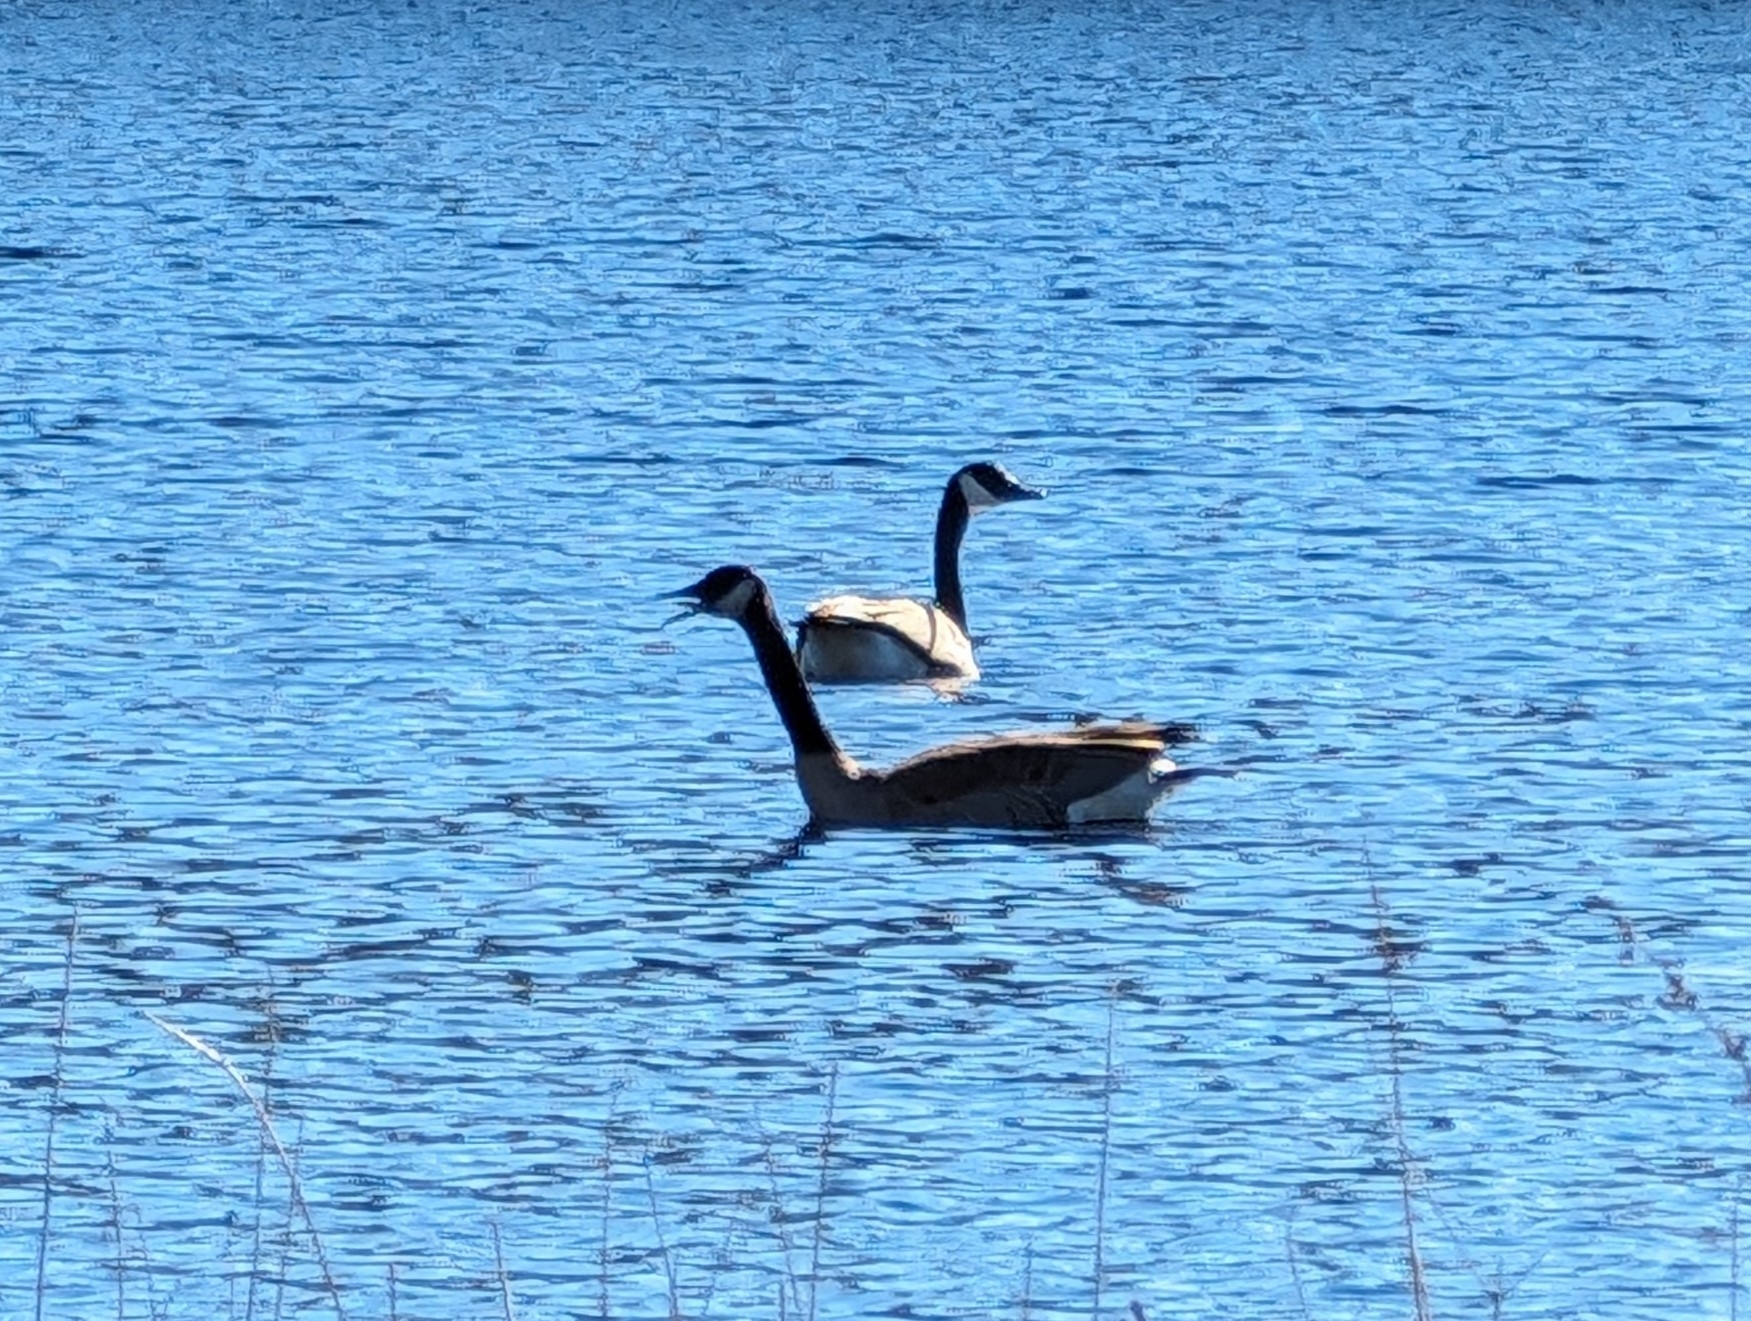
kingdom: Animalia
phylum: Chordata
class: Aves
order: Anseriformes
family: Anatidae
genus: Branta
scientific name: Branta canadensis
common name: Canada goose
